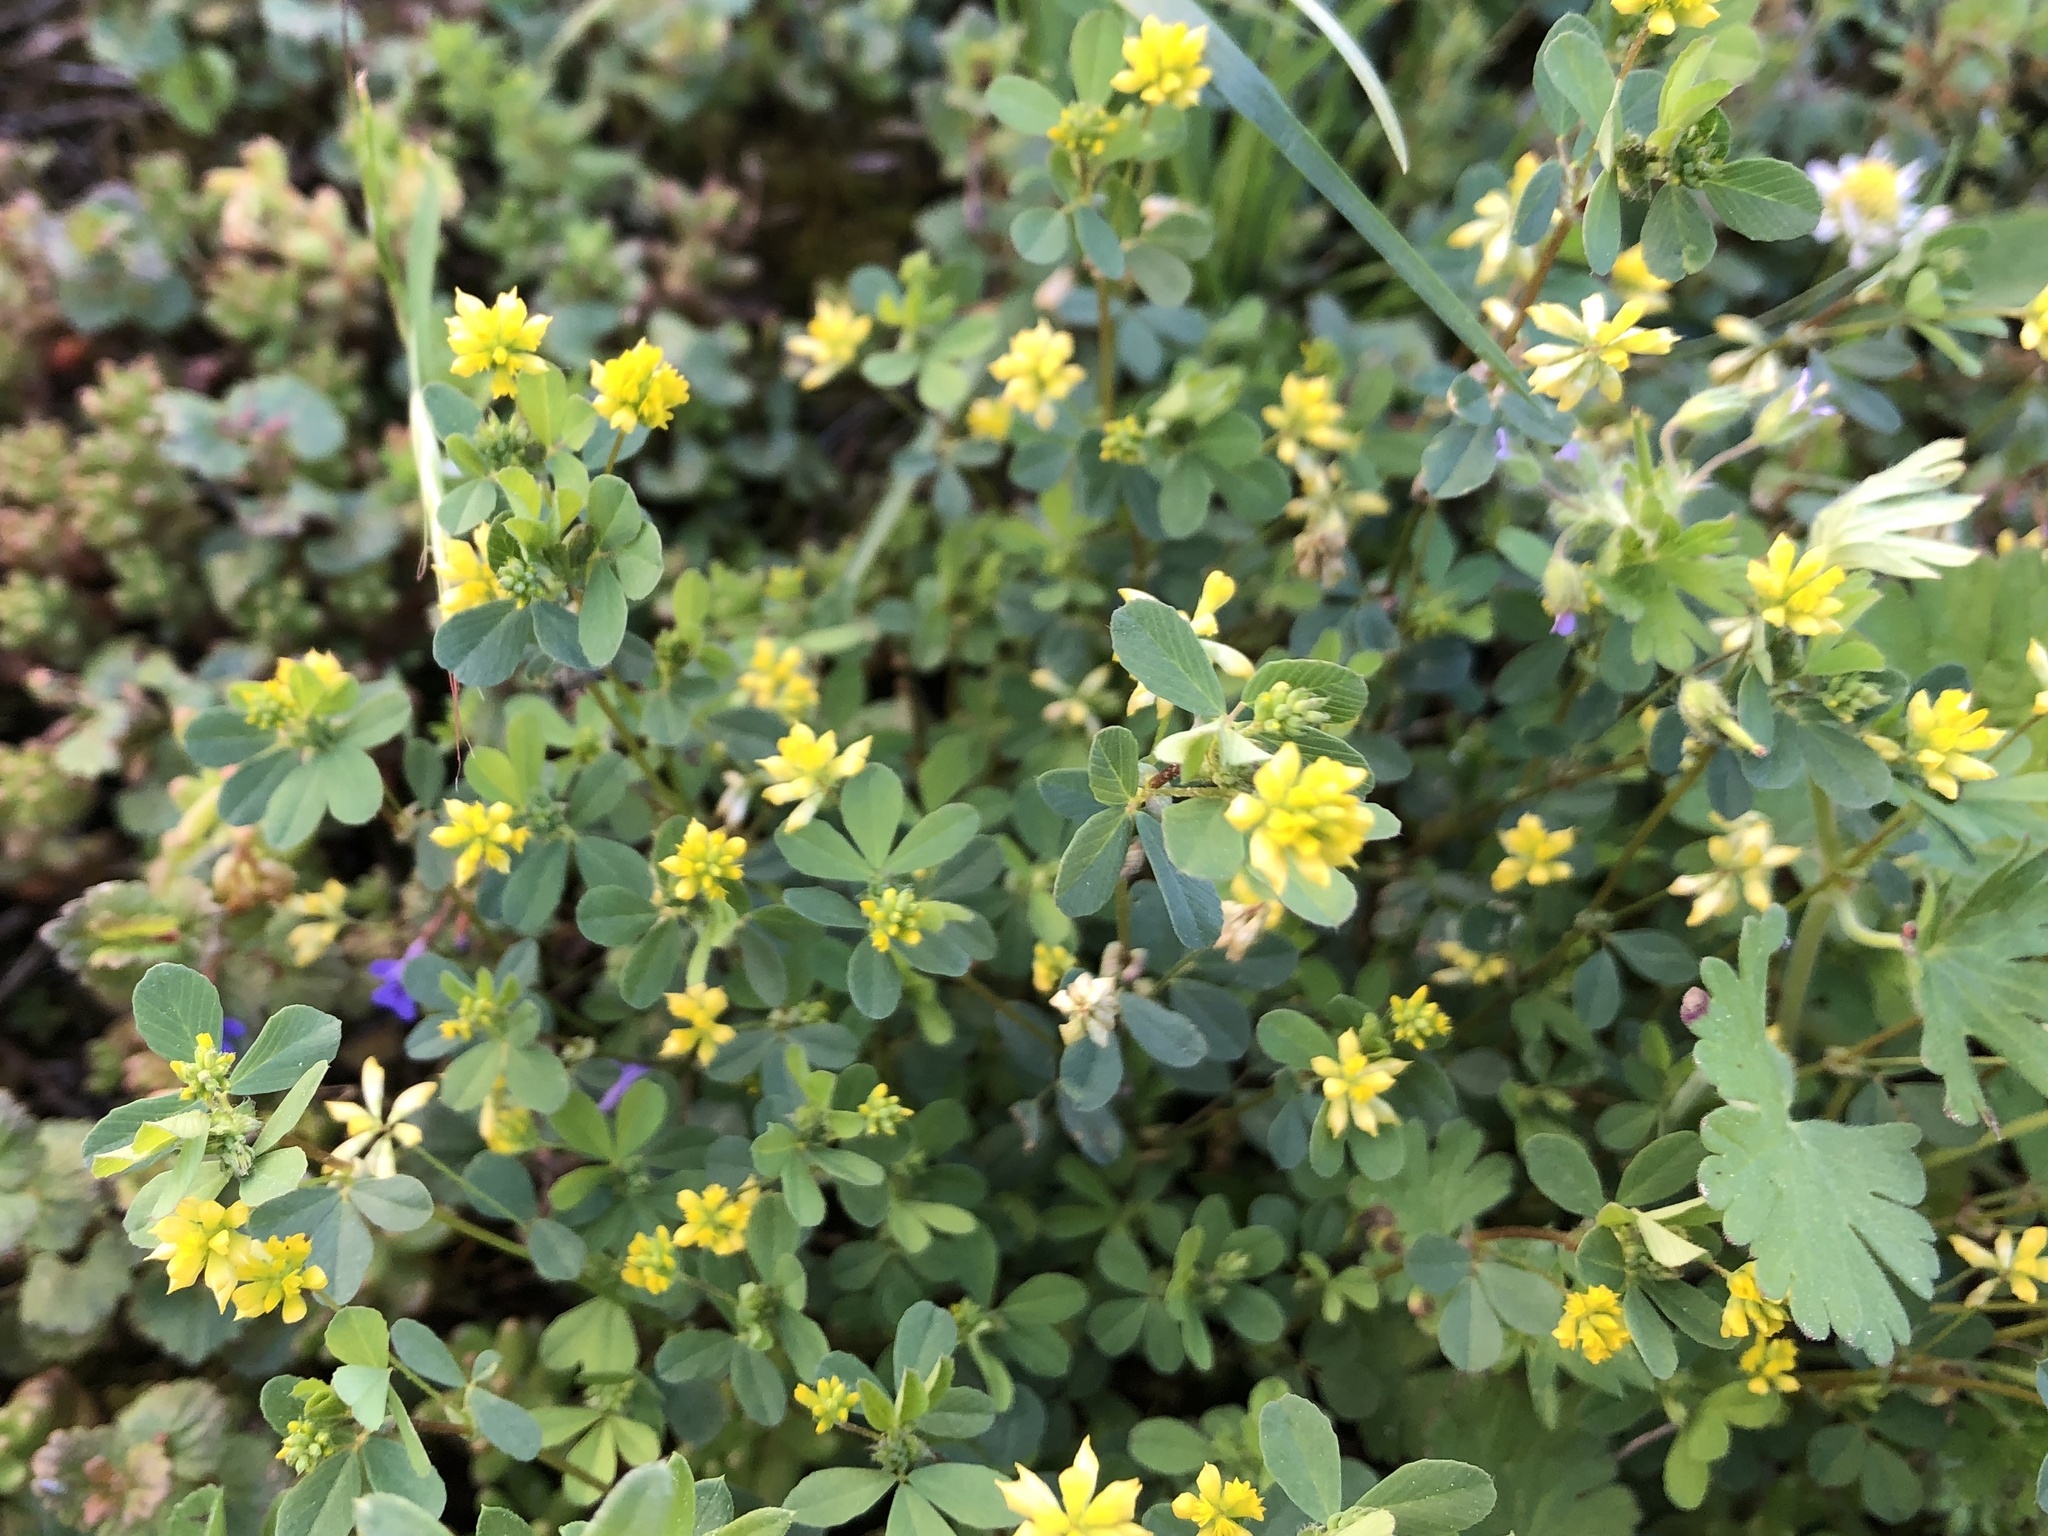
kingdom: Plantae
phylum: Tracheophyta
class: Magnoliopsida
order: Fabales
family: Fabaceae
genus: Trifolium
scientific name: Trifolium dubium
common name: Suckling clover
